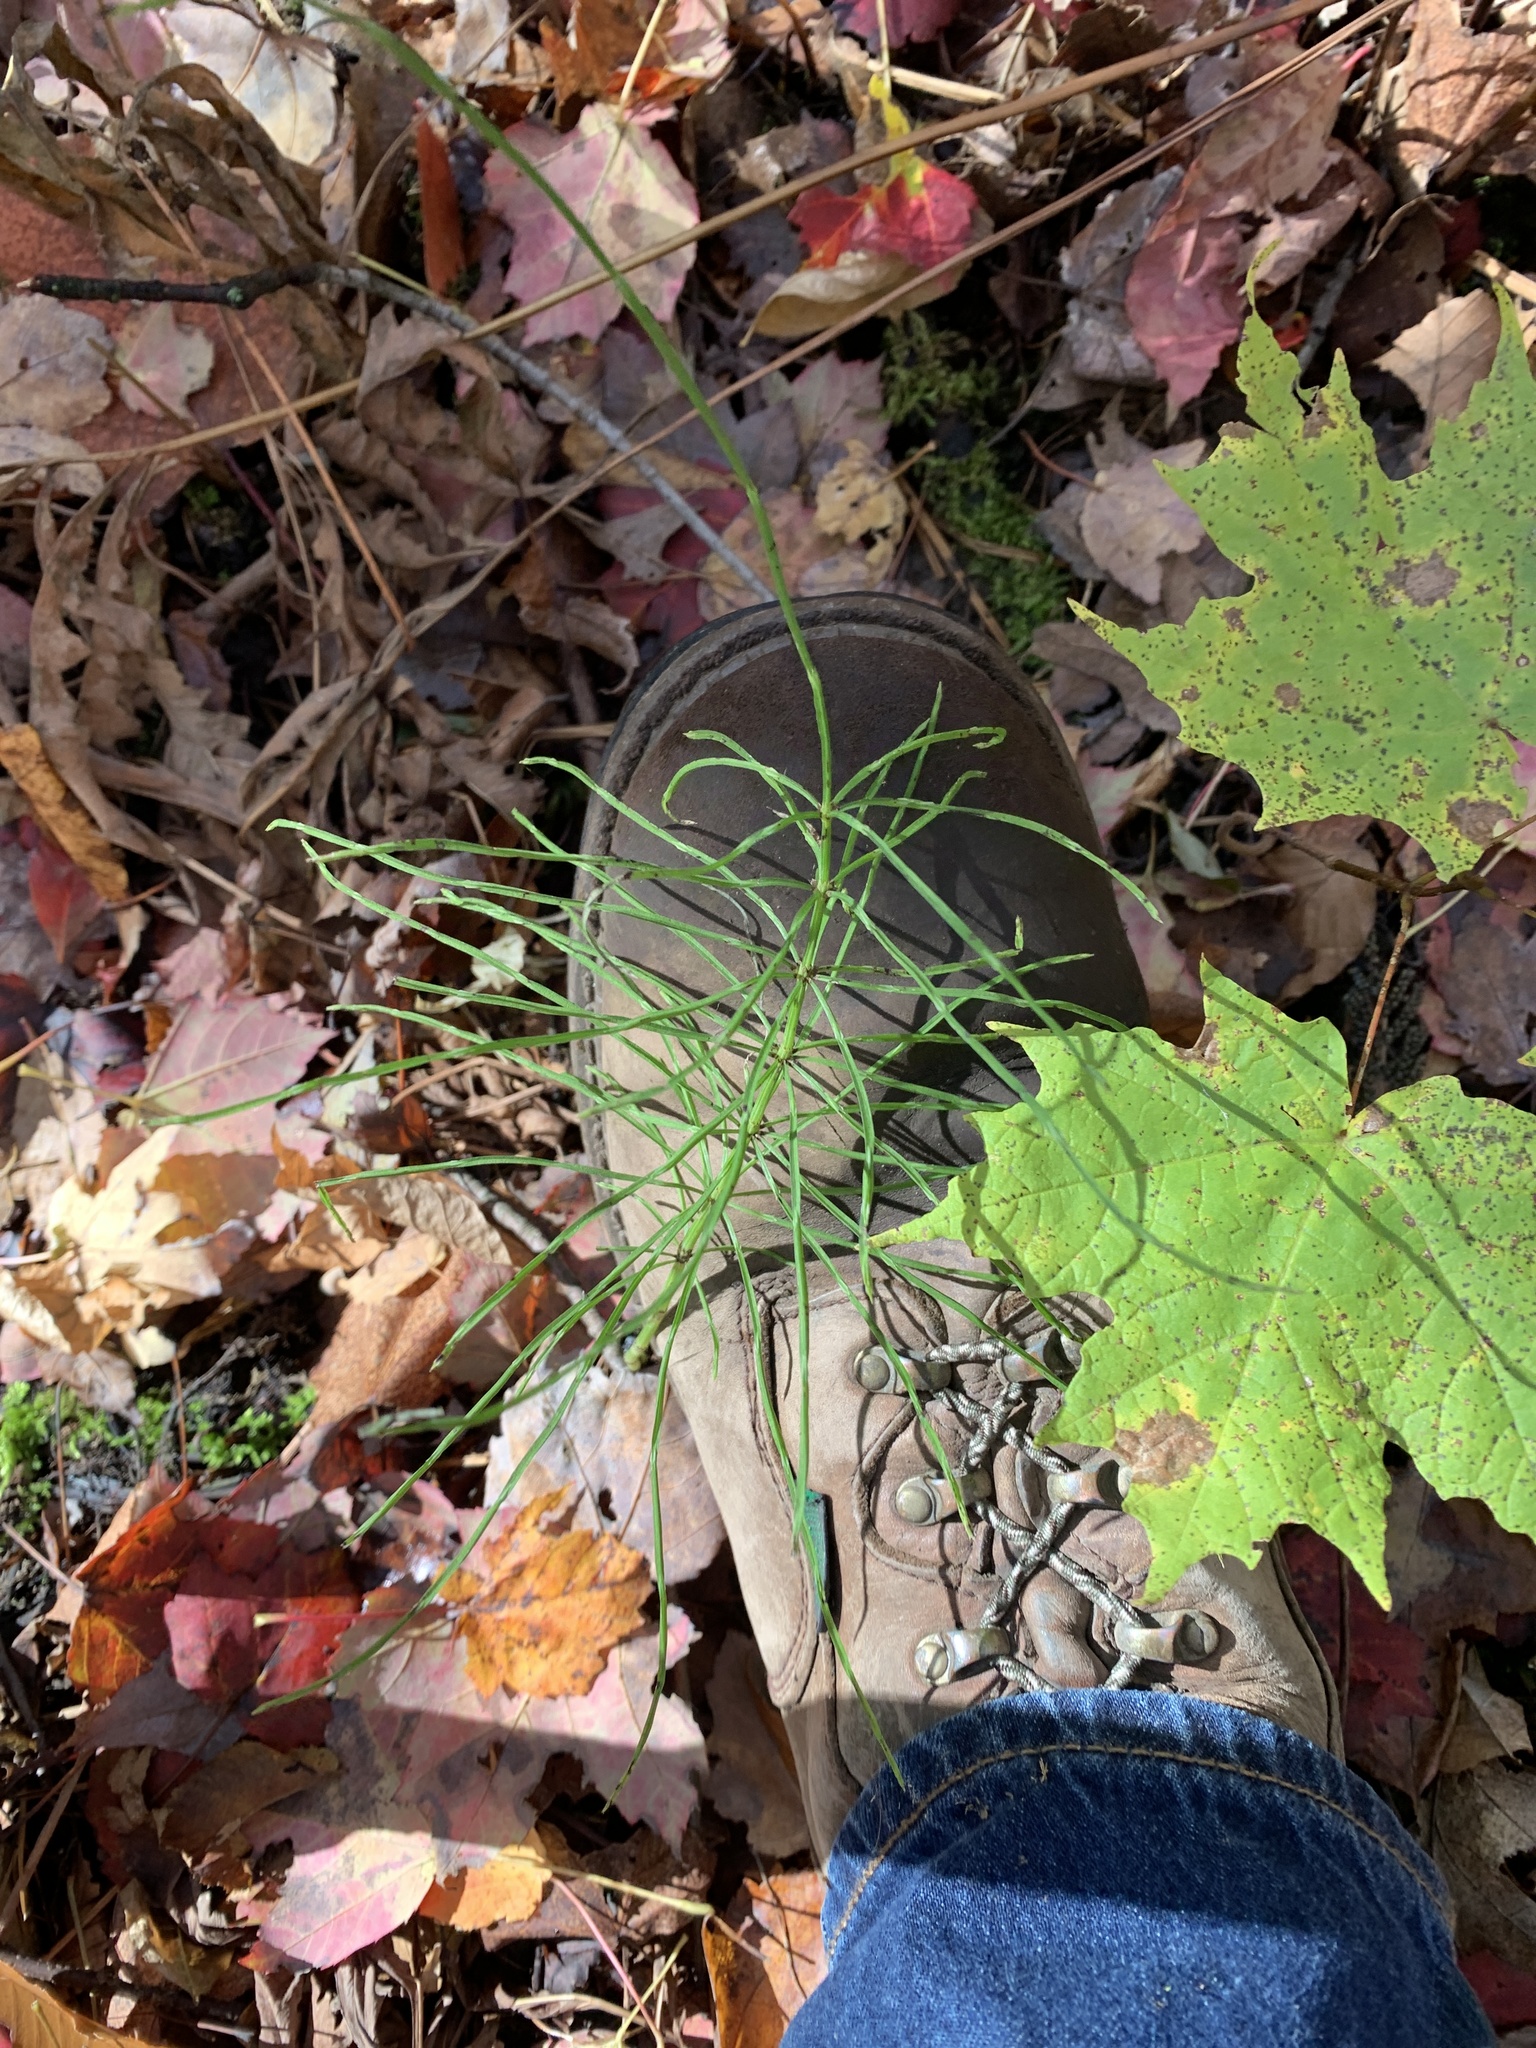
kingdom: Plantae
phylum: Tracheophyta
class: Polypodiopsida
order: Equisetales
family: Equisetaceae
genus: Equisetum
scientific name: Equisetum arvense
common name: Field horsetail
